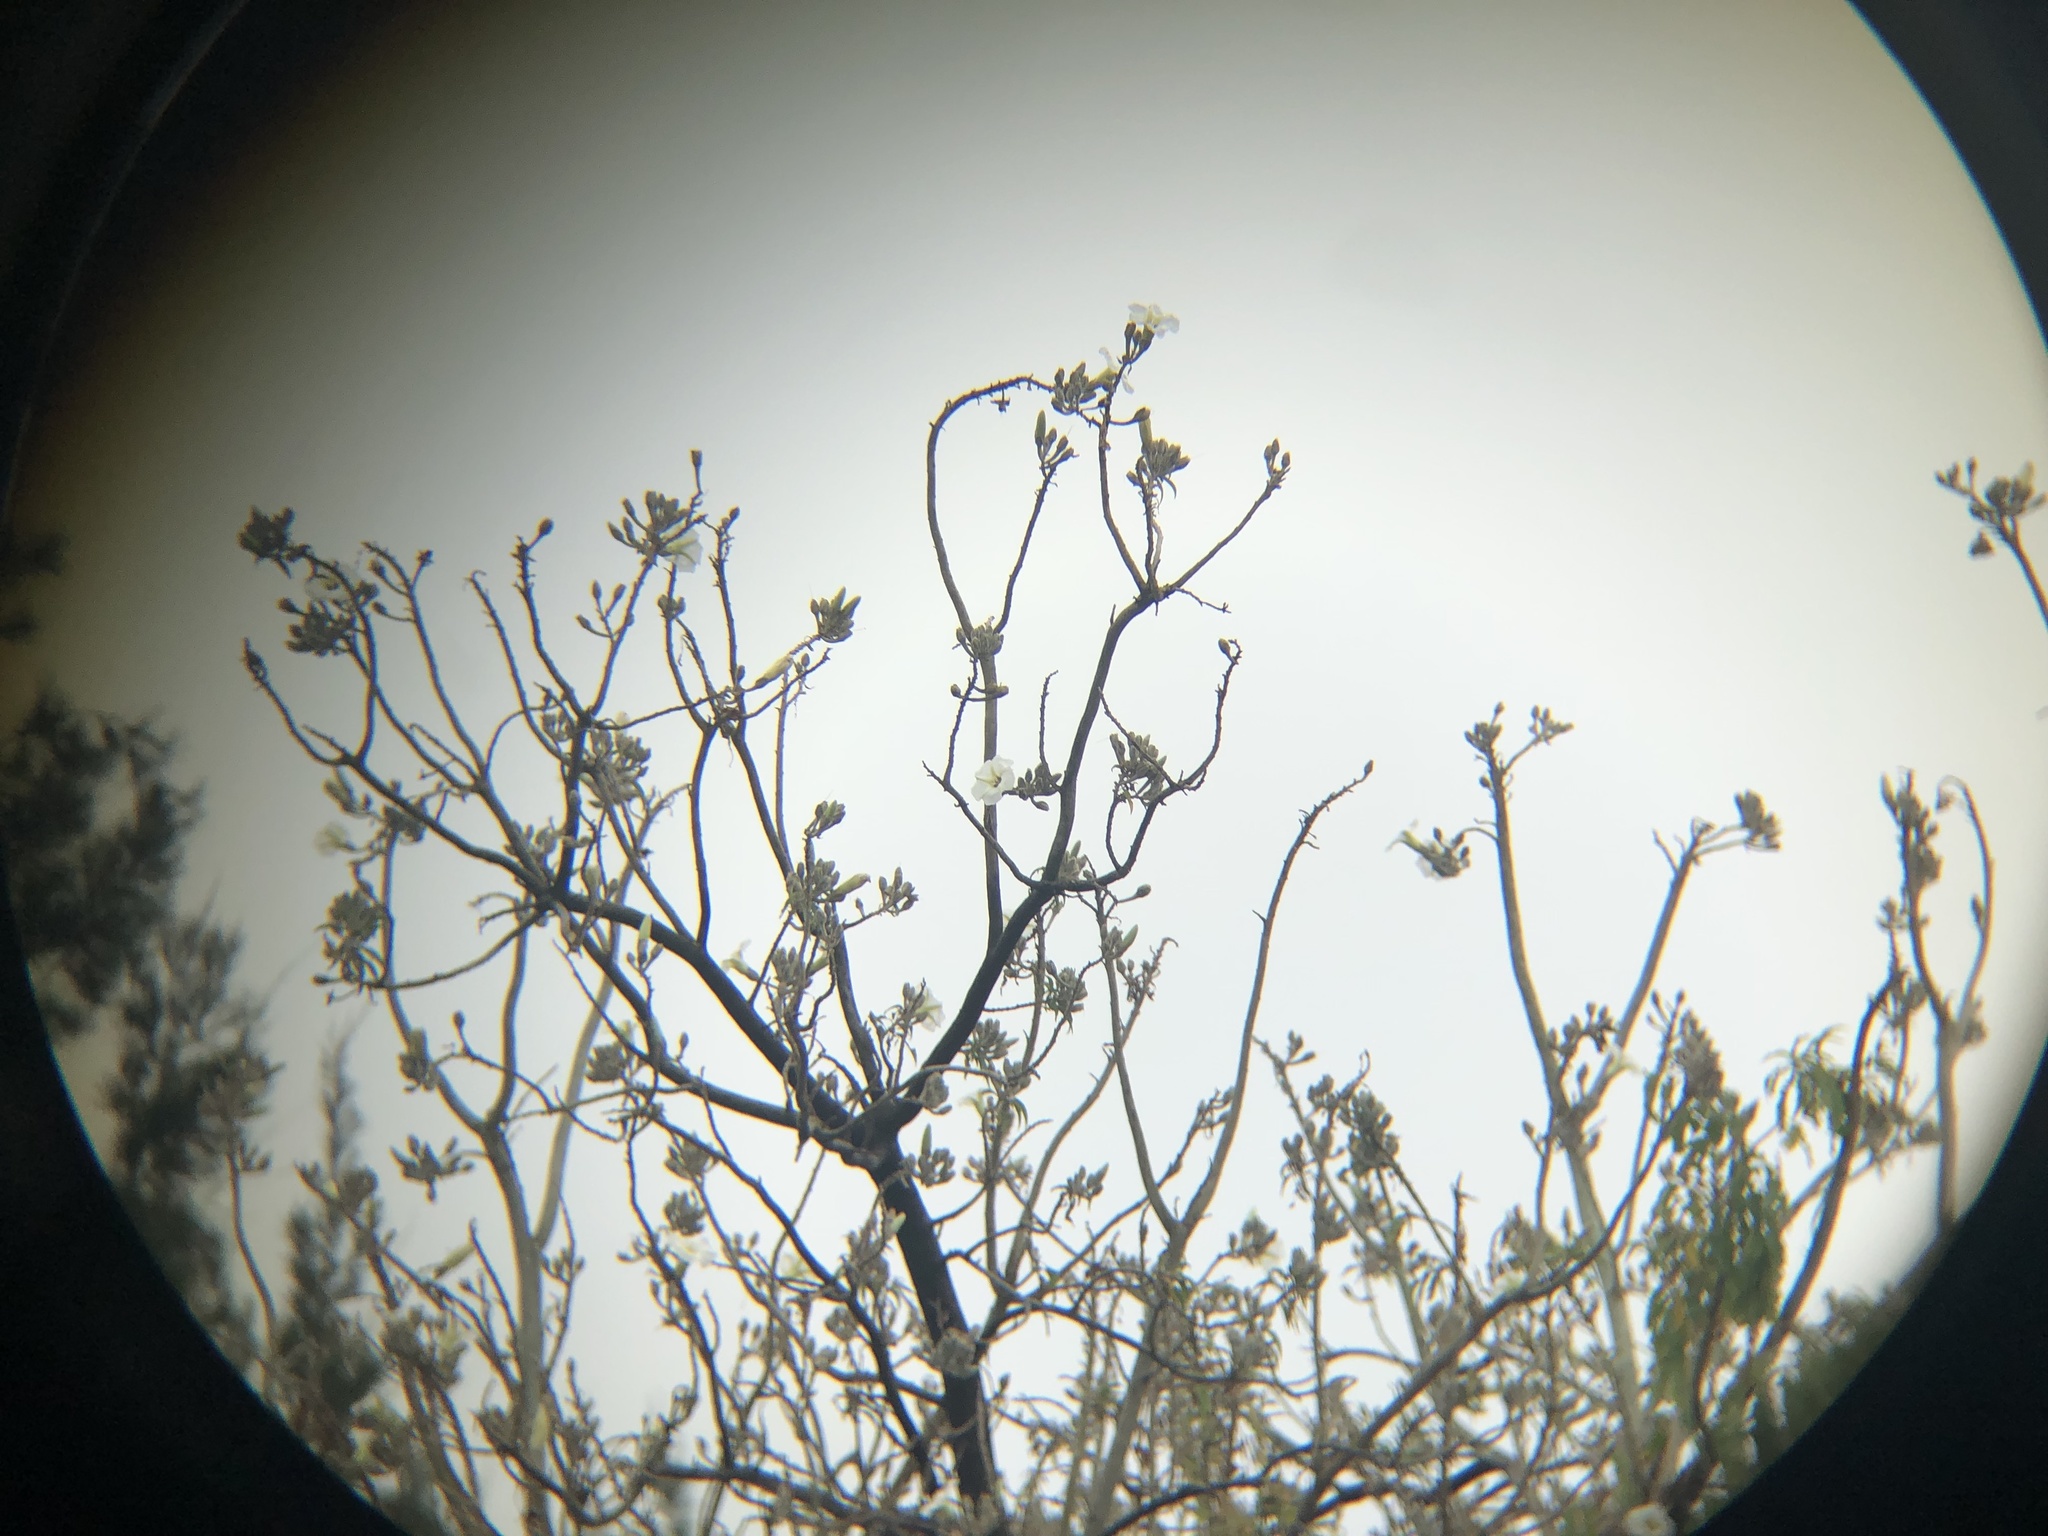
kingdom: Plantae
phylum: Tracheophyta
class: Magnoliopsida
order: Solanales
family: Convolvulaceae
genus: Ipomoea
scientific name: Ipomoea murucoides
